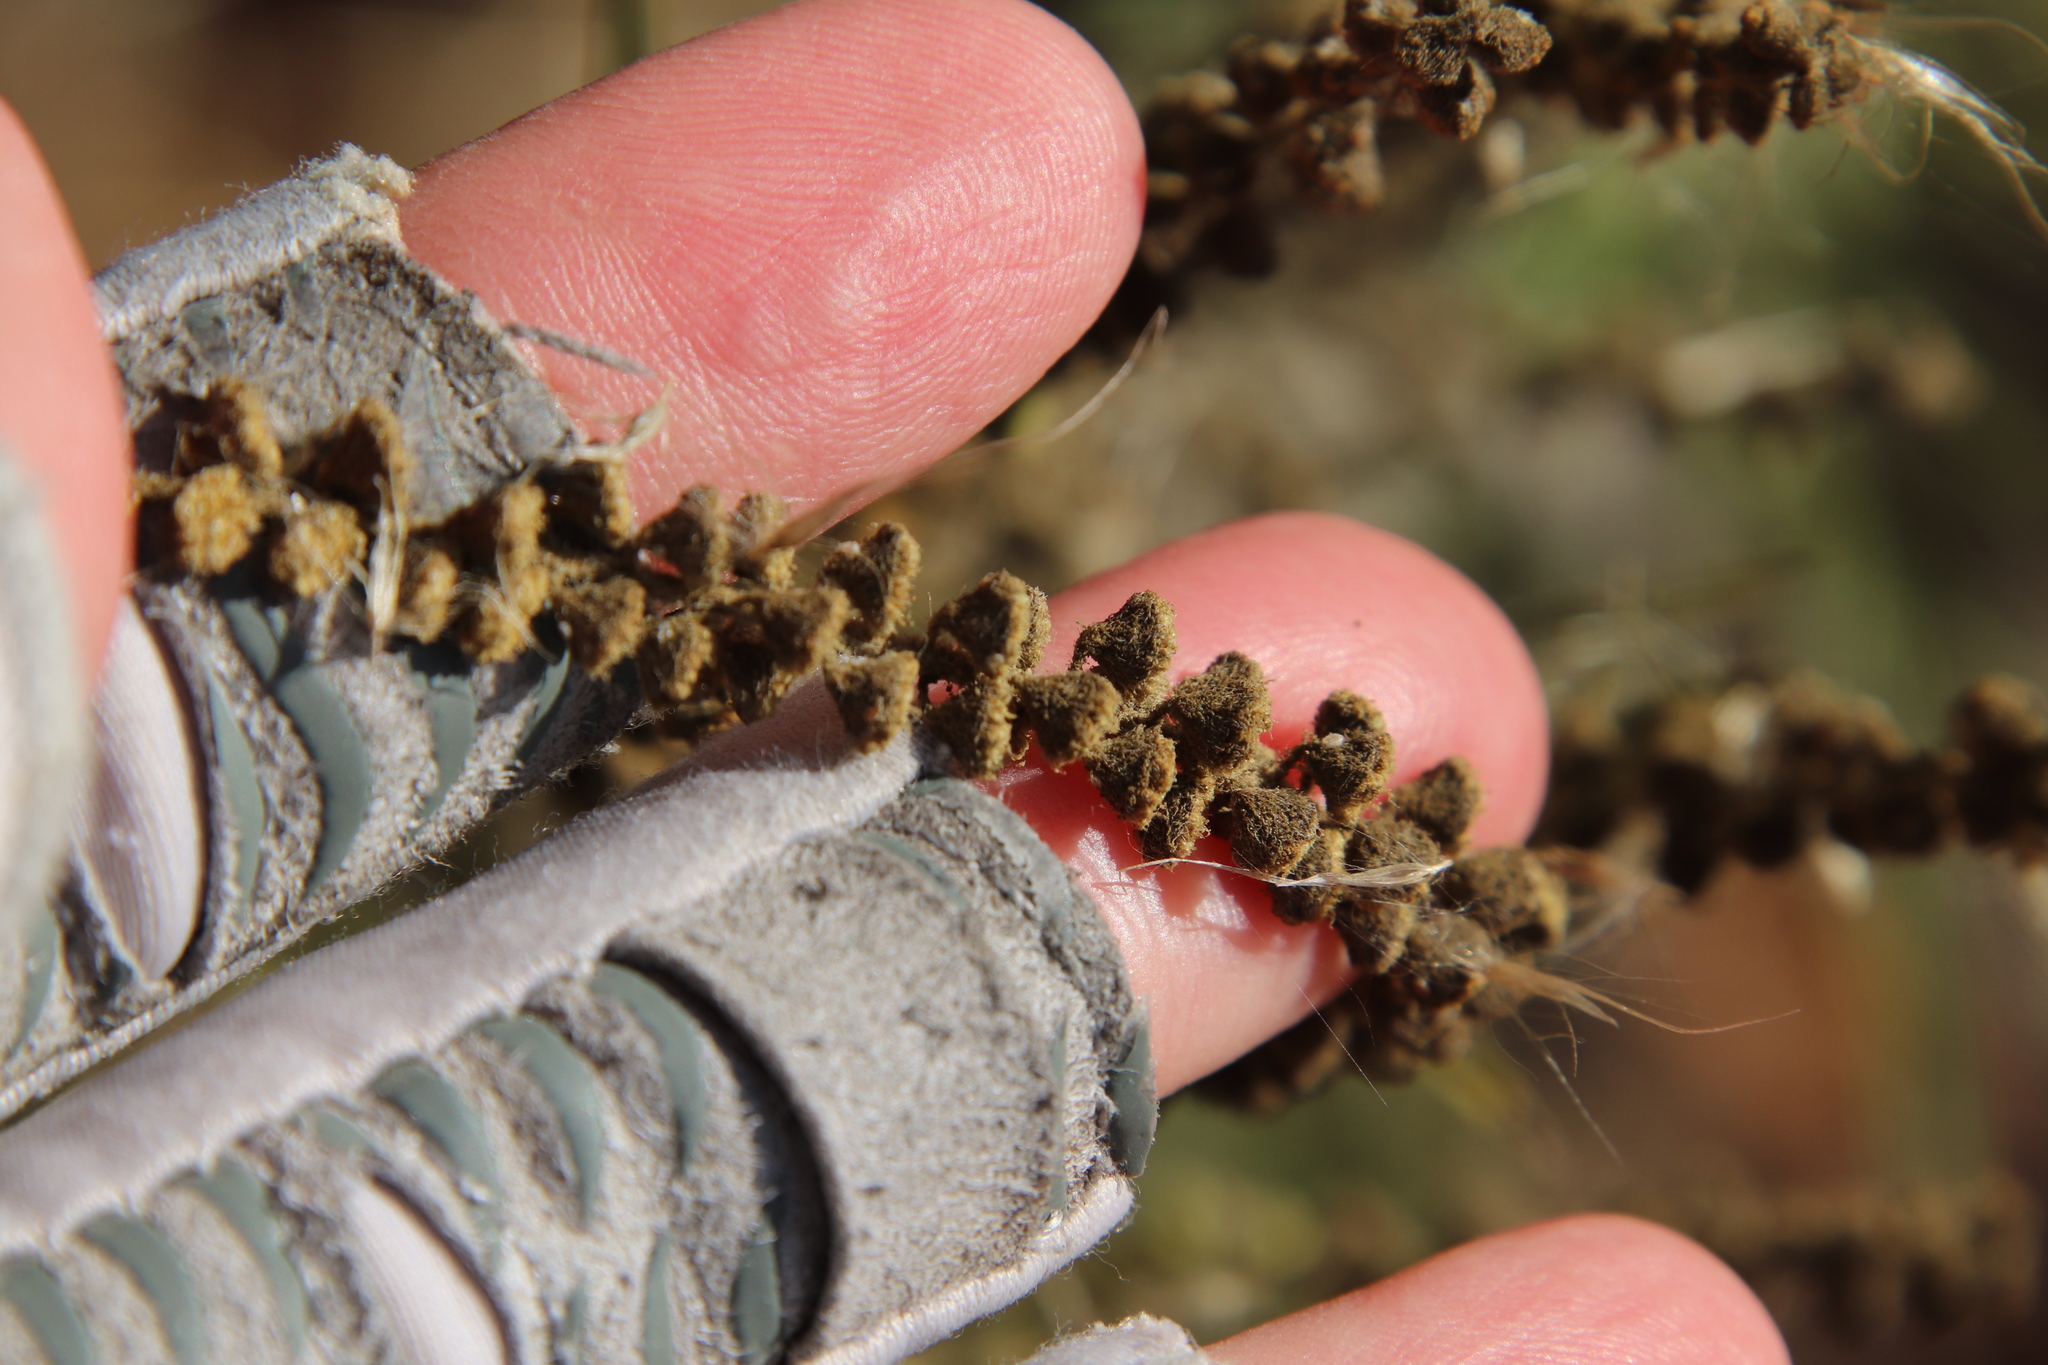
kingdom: Plantae
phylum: Tracheophyta
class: Magnoliopsida
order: Asterales
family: Asteraceae
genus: Ambrosia
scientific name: Ambrosia psilostachya
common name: Perennial ragweed
